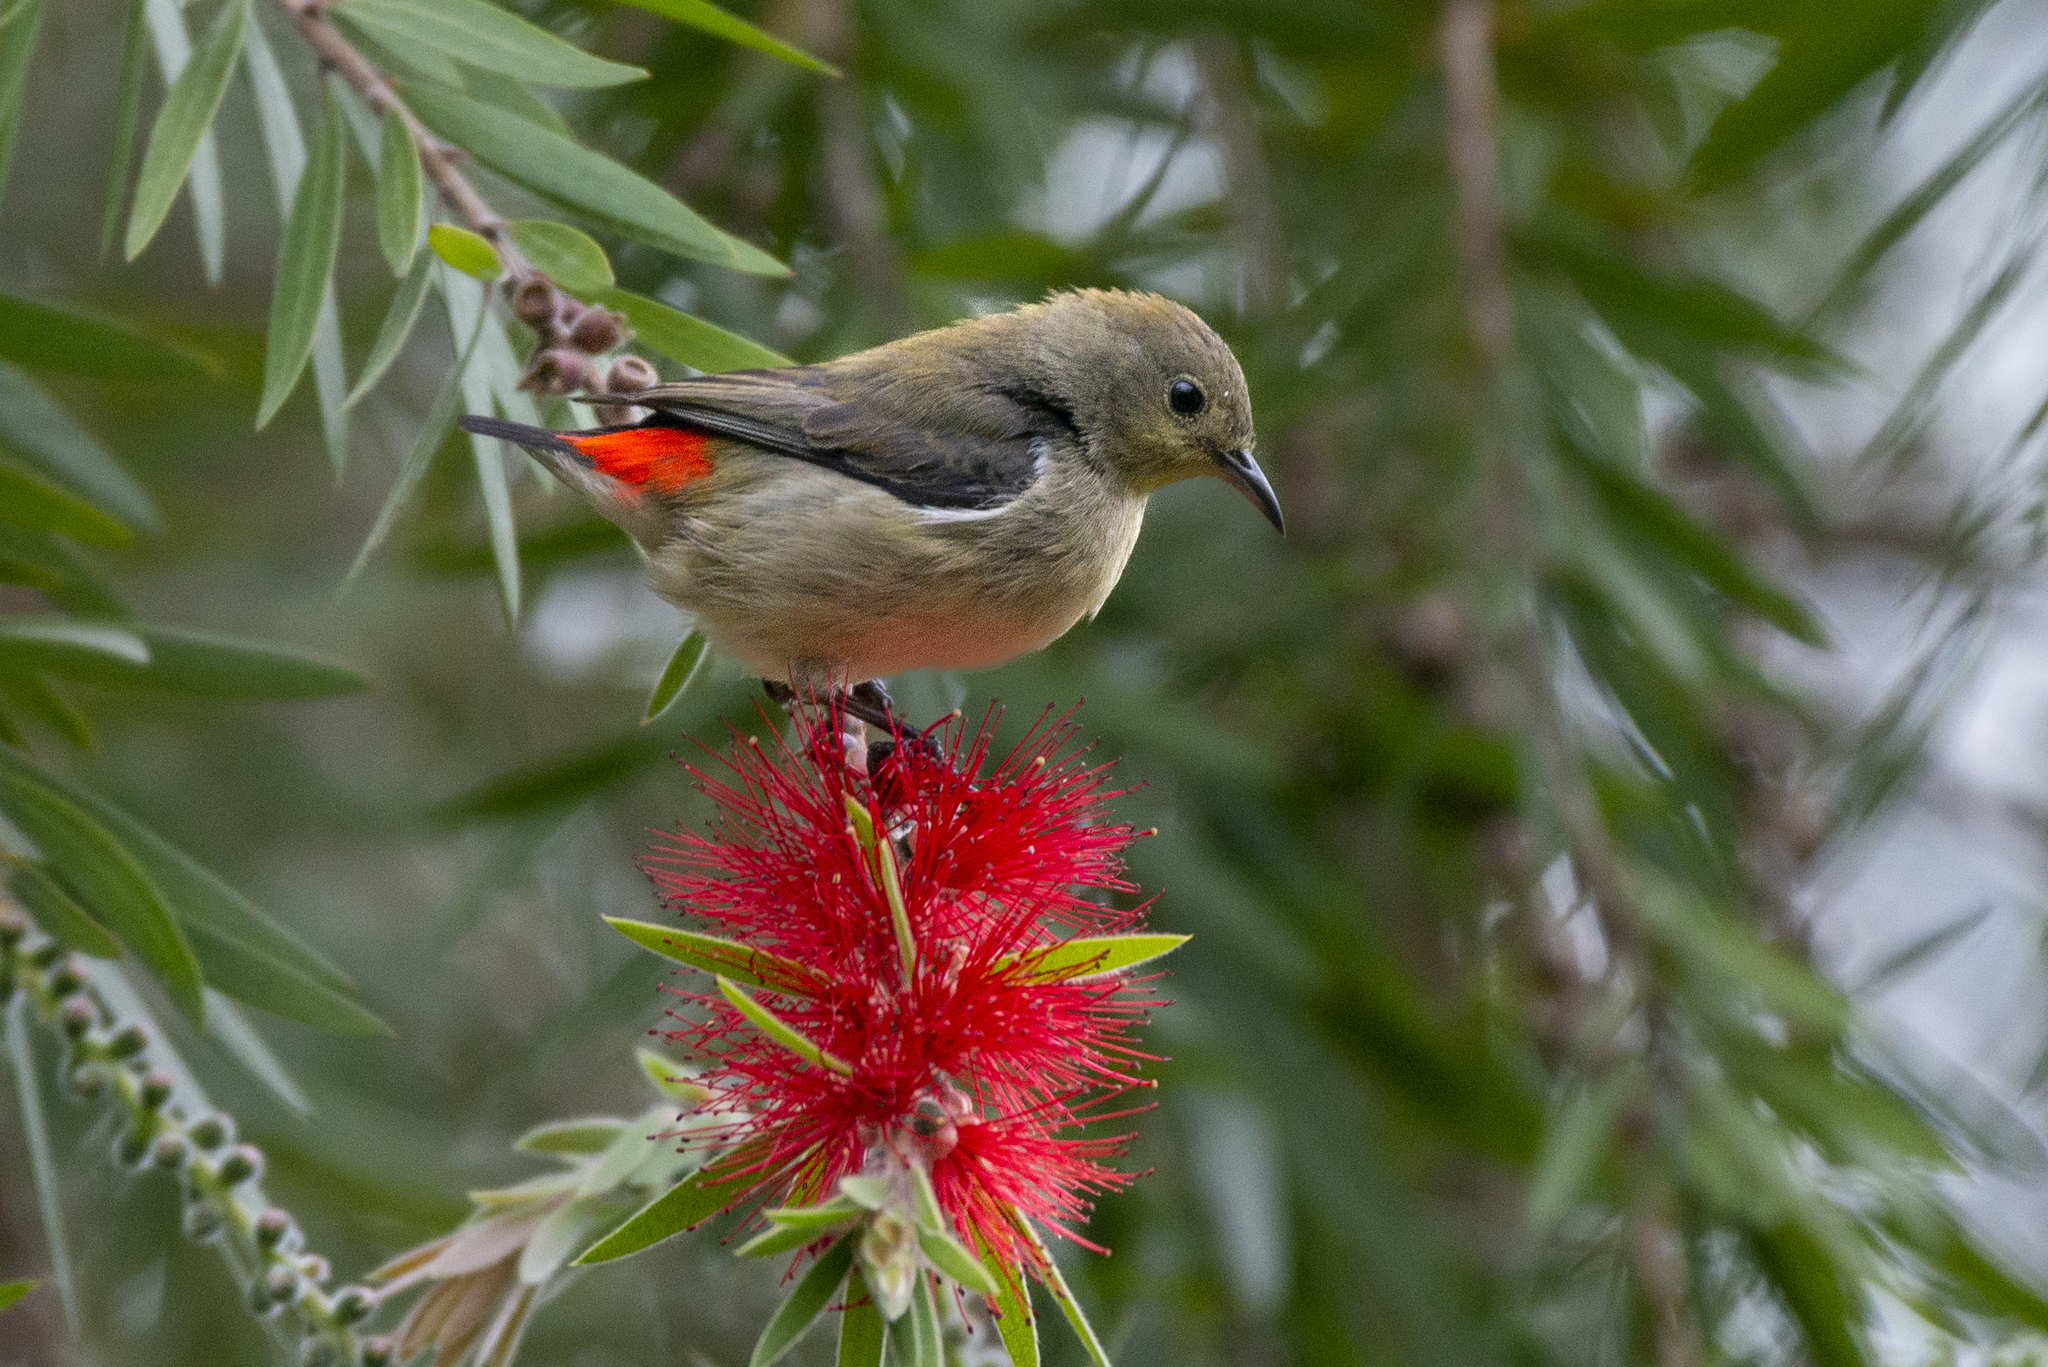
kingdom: Animalia
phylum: Chordata
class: Aves
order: Passeriformes
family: Dicaeidae
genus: Dicaeum
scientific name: Dicaeum cruentatum
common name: Scarlet-backed flowerpecker
